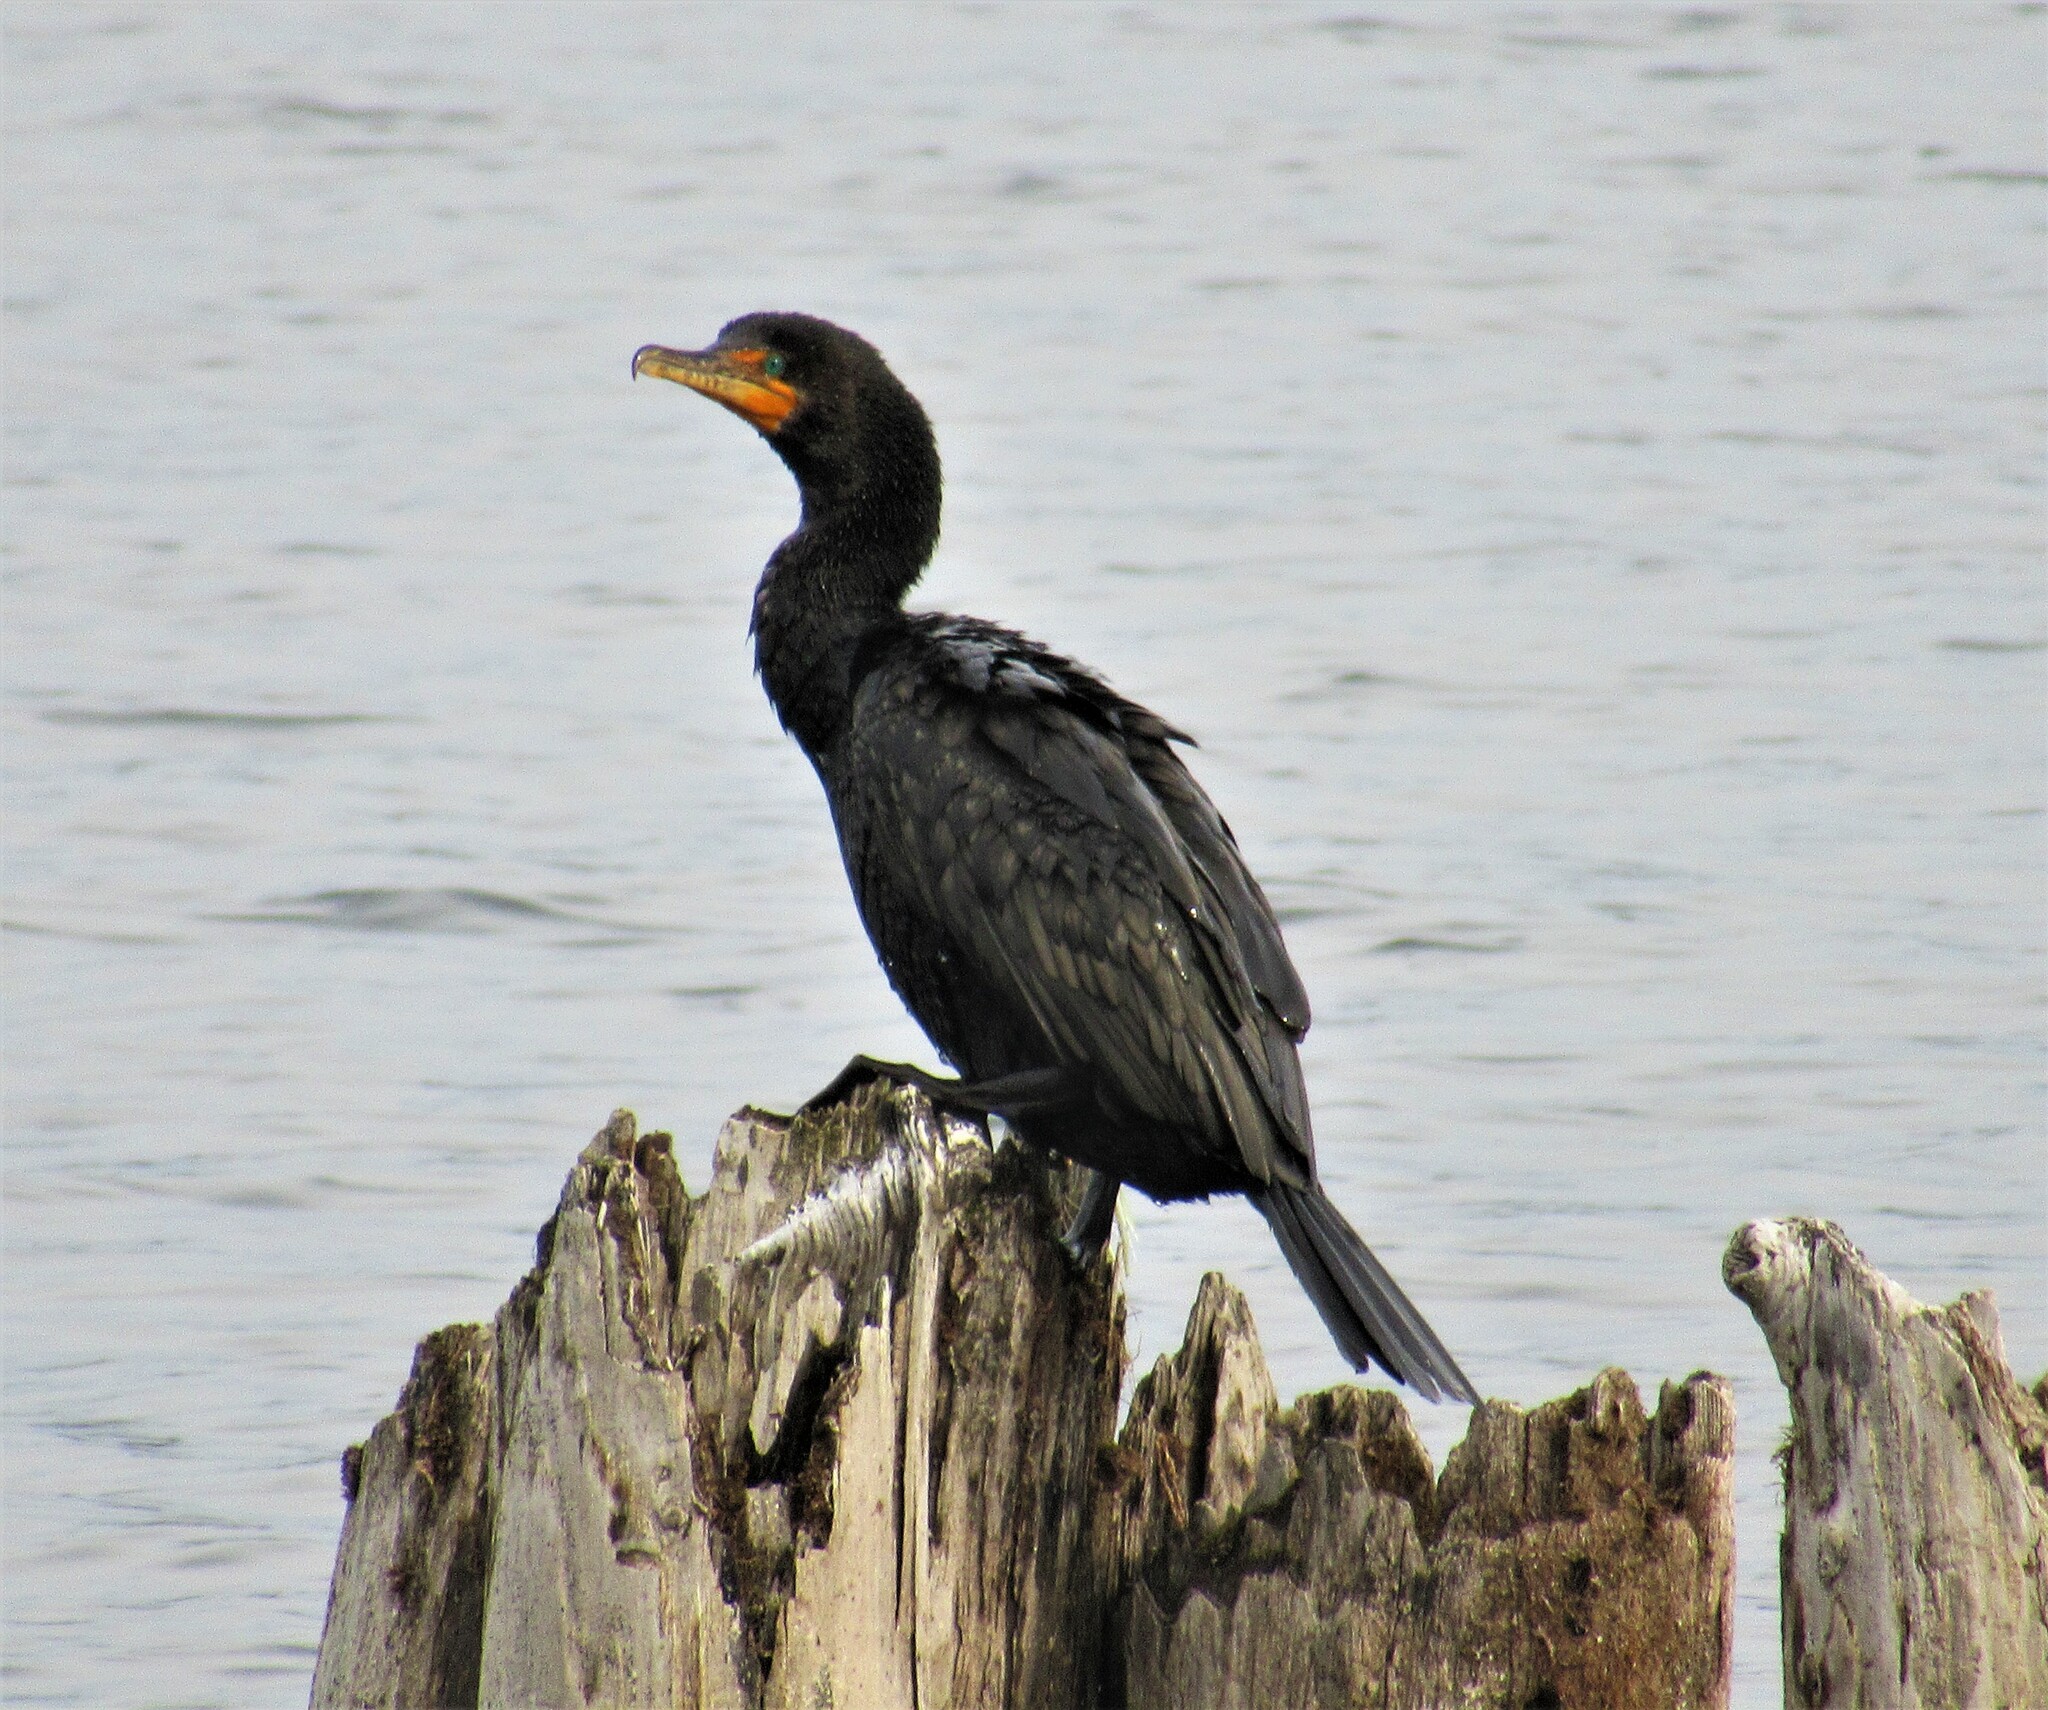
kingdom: Animalia
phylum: Chordata
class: Aves
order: Suliformes
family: Phalacrocoracidae
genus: Phalacrocorax
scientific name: Phalacrocorax auritus
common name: Double-crested cormorant
